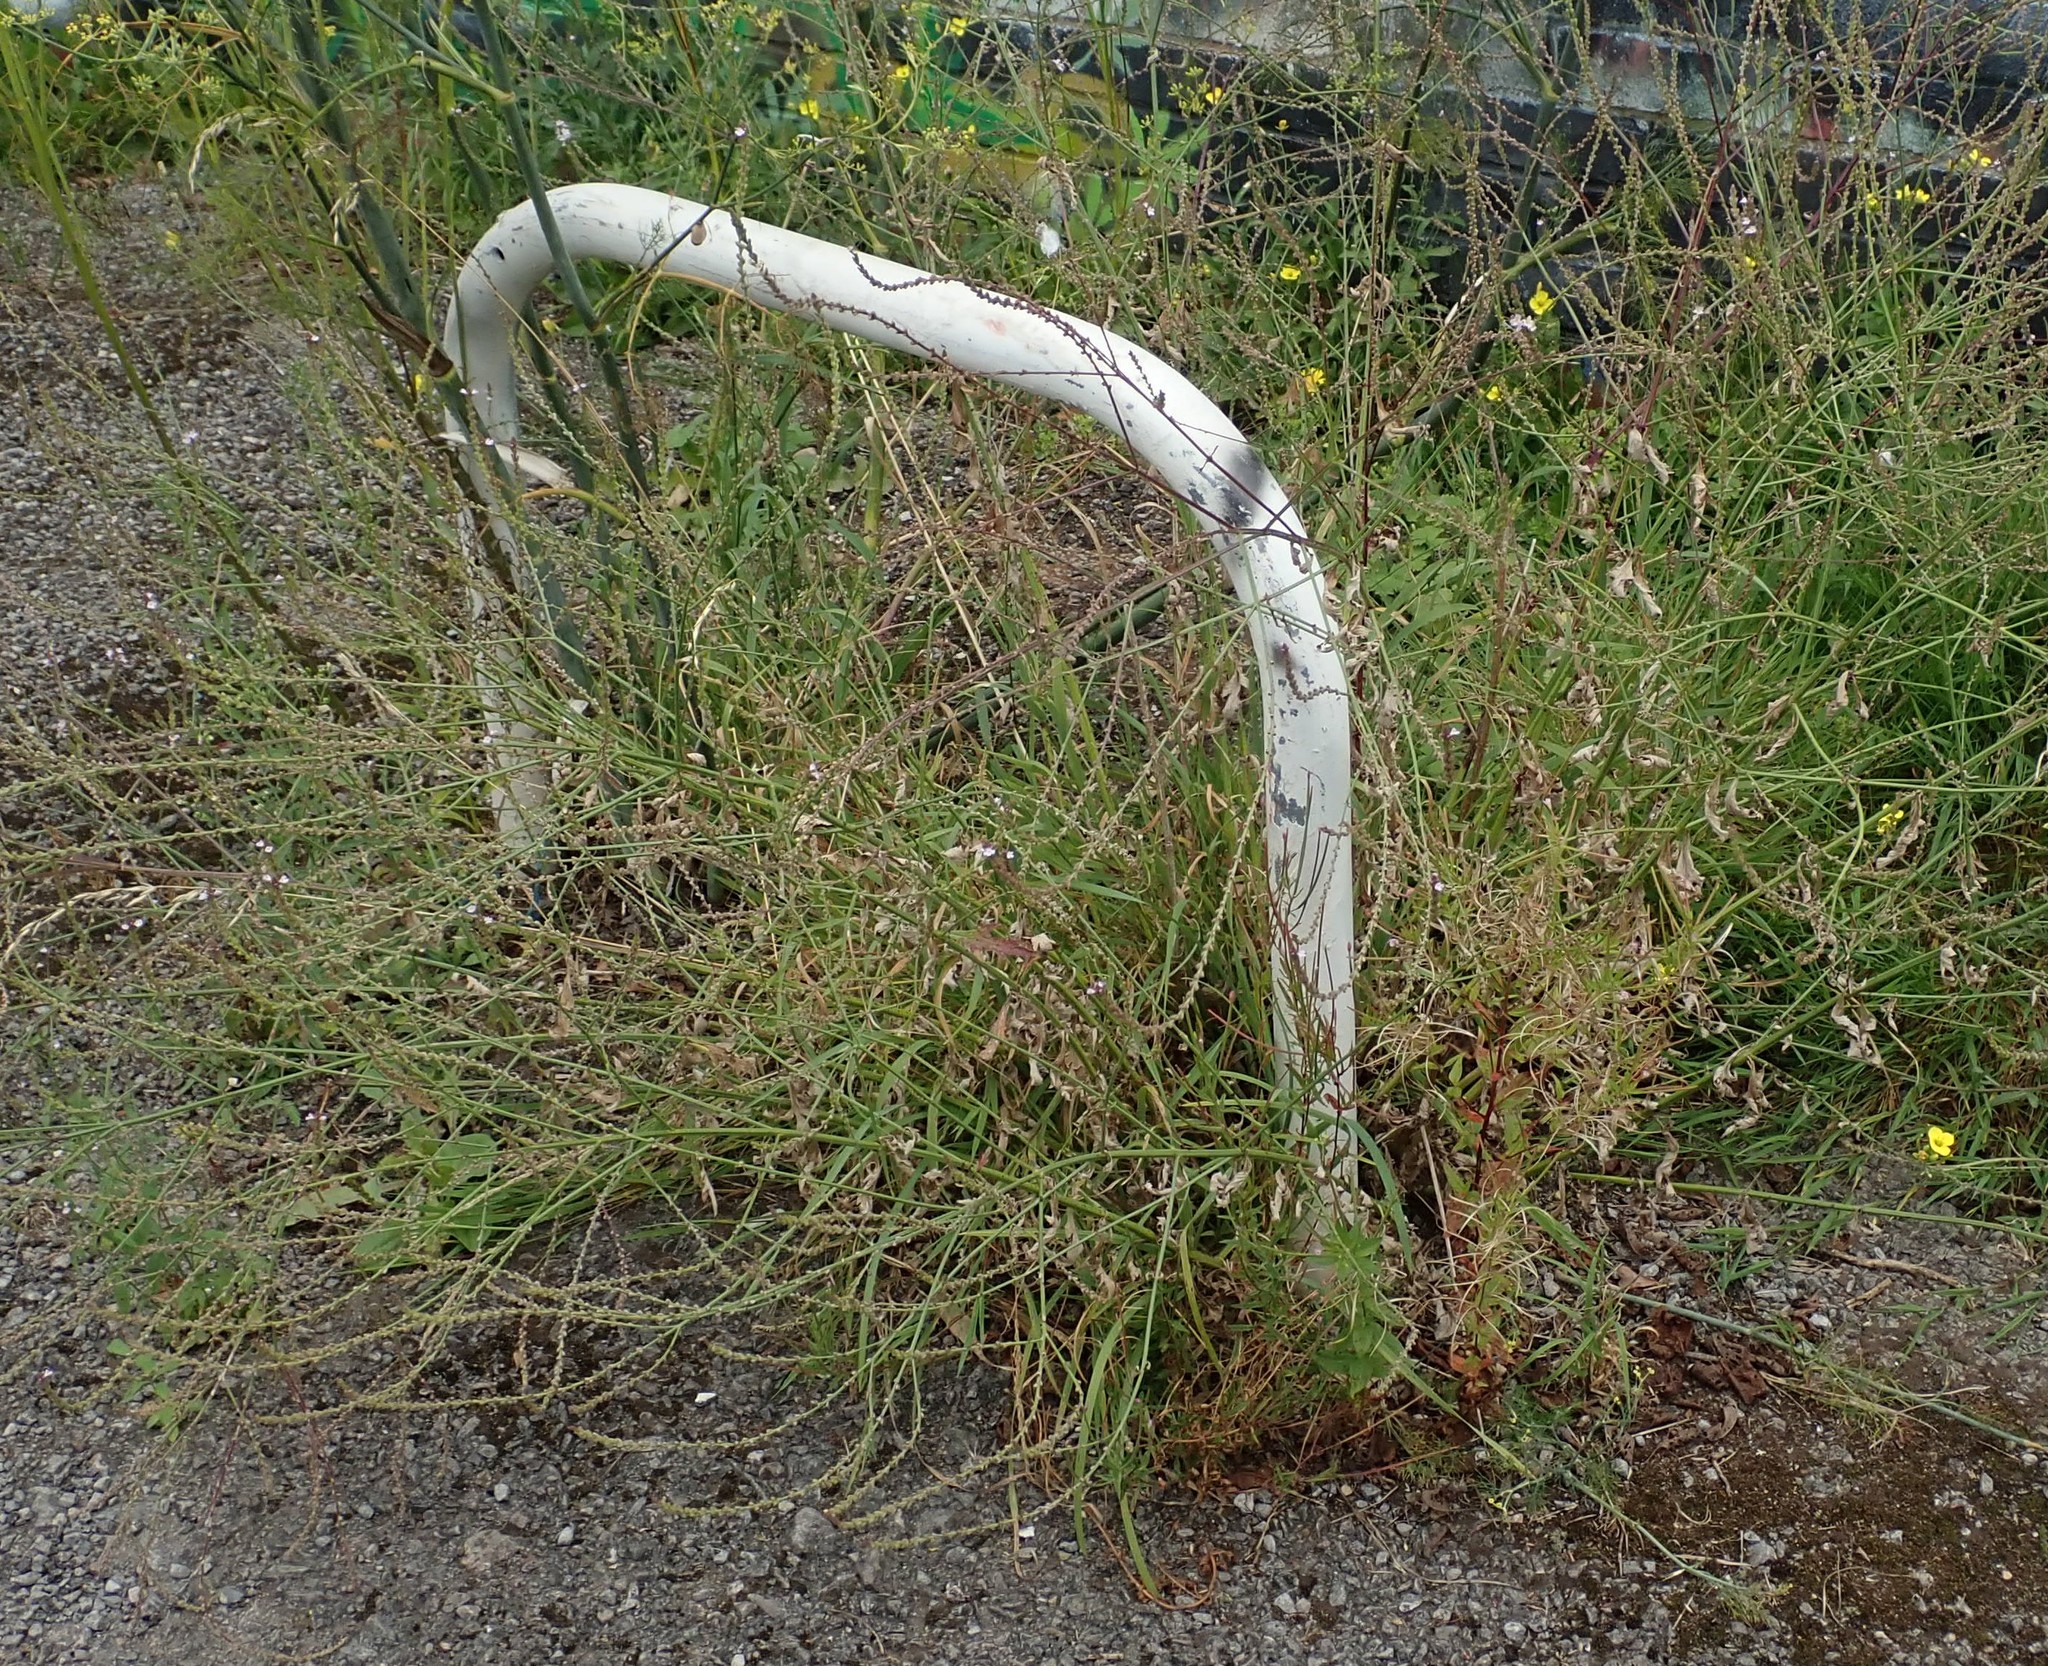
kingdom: Plantae
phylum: Tracheophyta
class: Magnoliopsida
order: Lamiales
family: Verbenaceae
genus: Verbena
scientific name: Verbena officinalis
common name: Vervain
